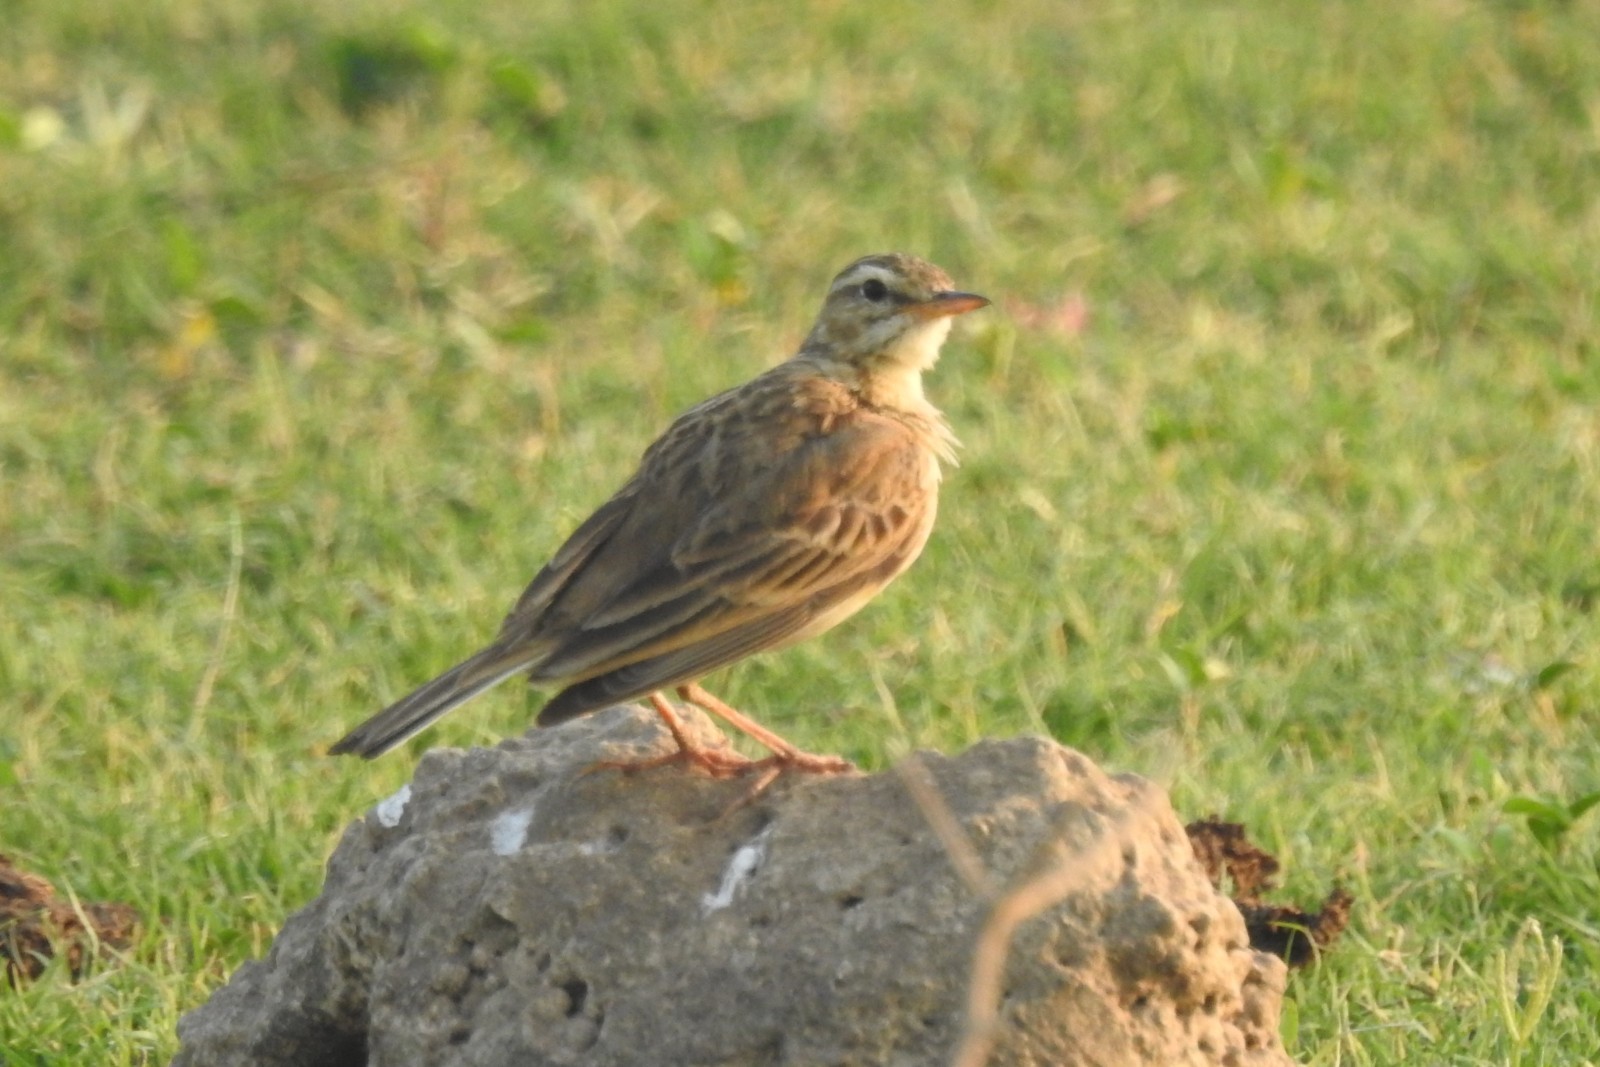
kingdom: Animalia
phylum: Chordata
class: Aves
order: Passeriformes
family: Motacillidae
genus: Anthus
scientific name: Anthus rufulus
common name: Paddyfield pipit
